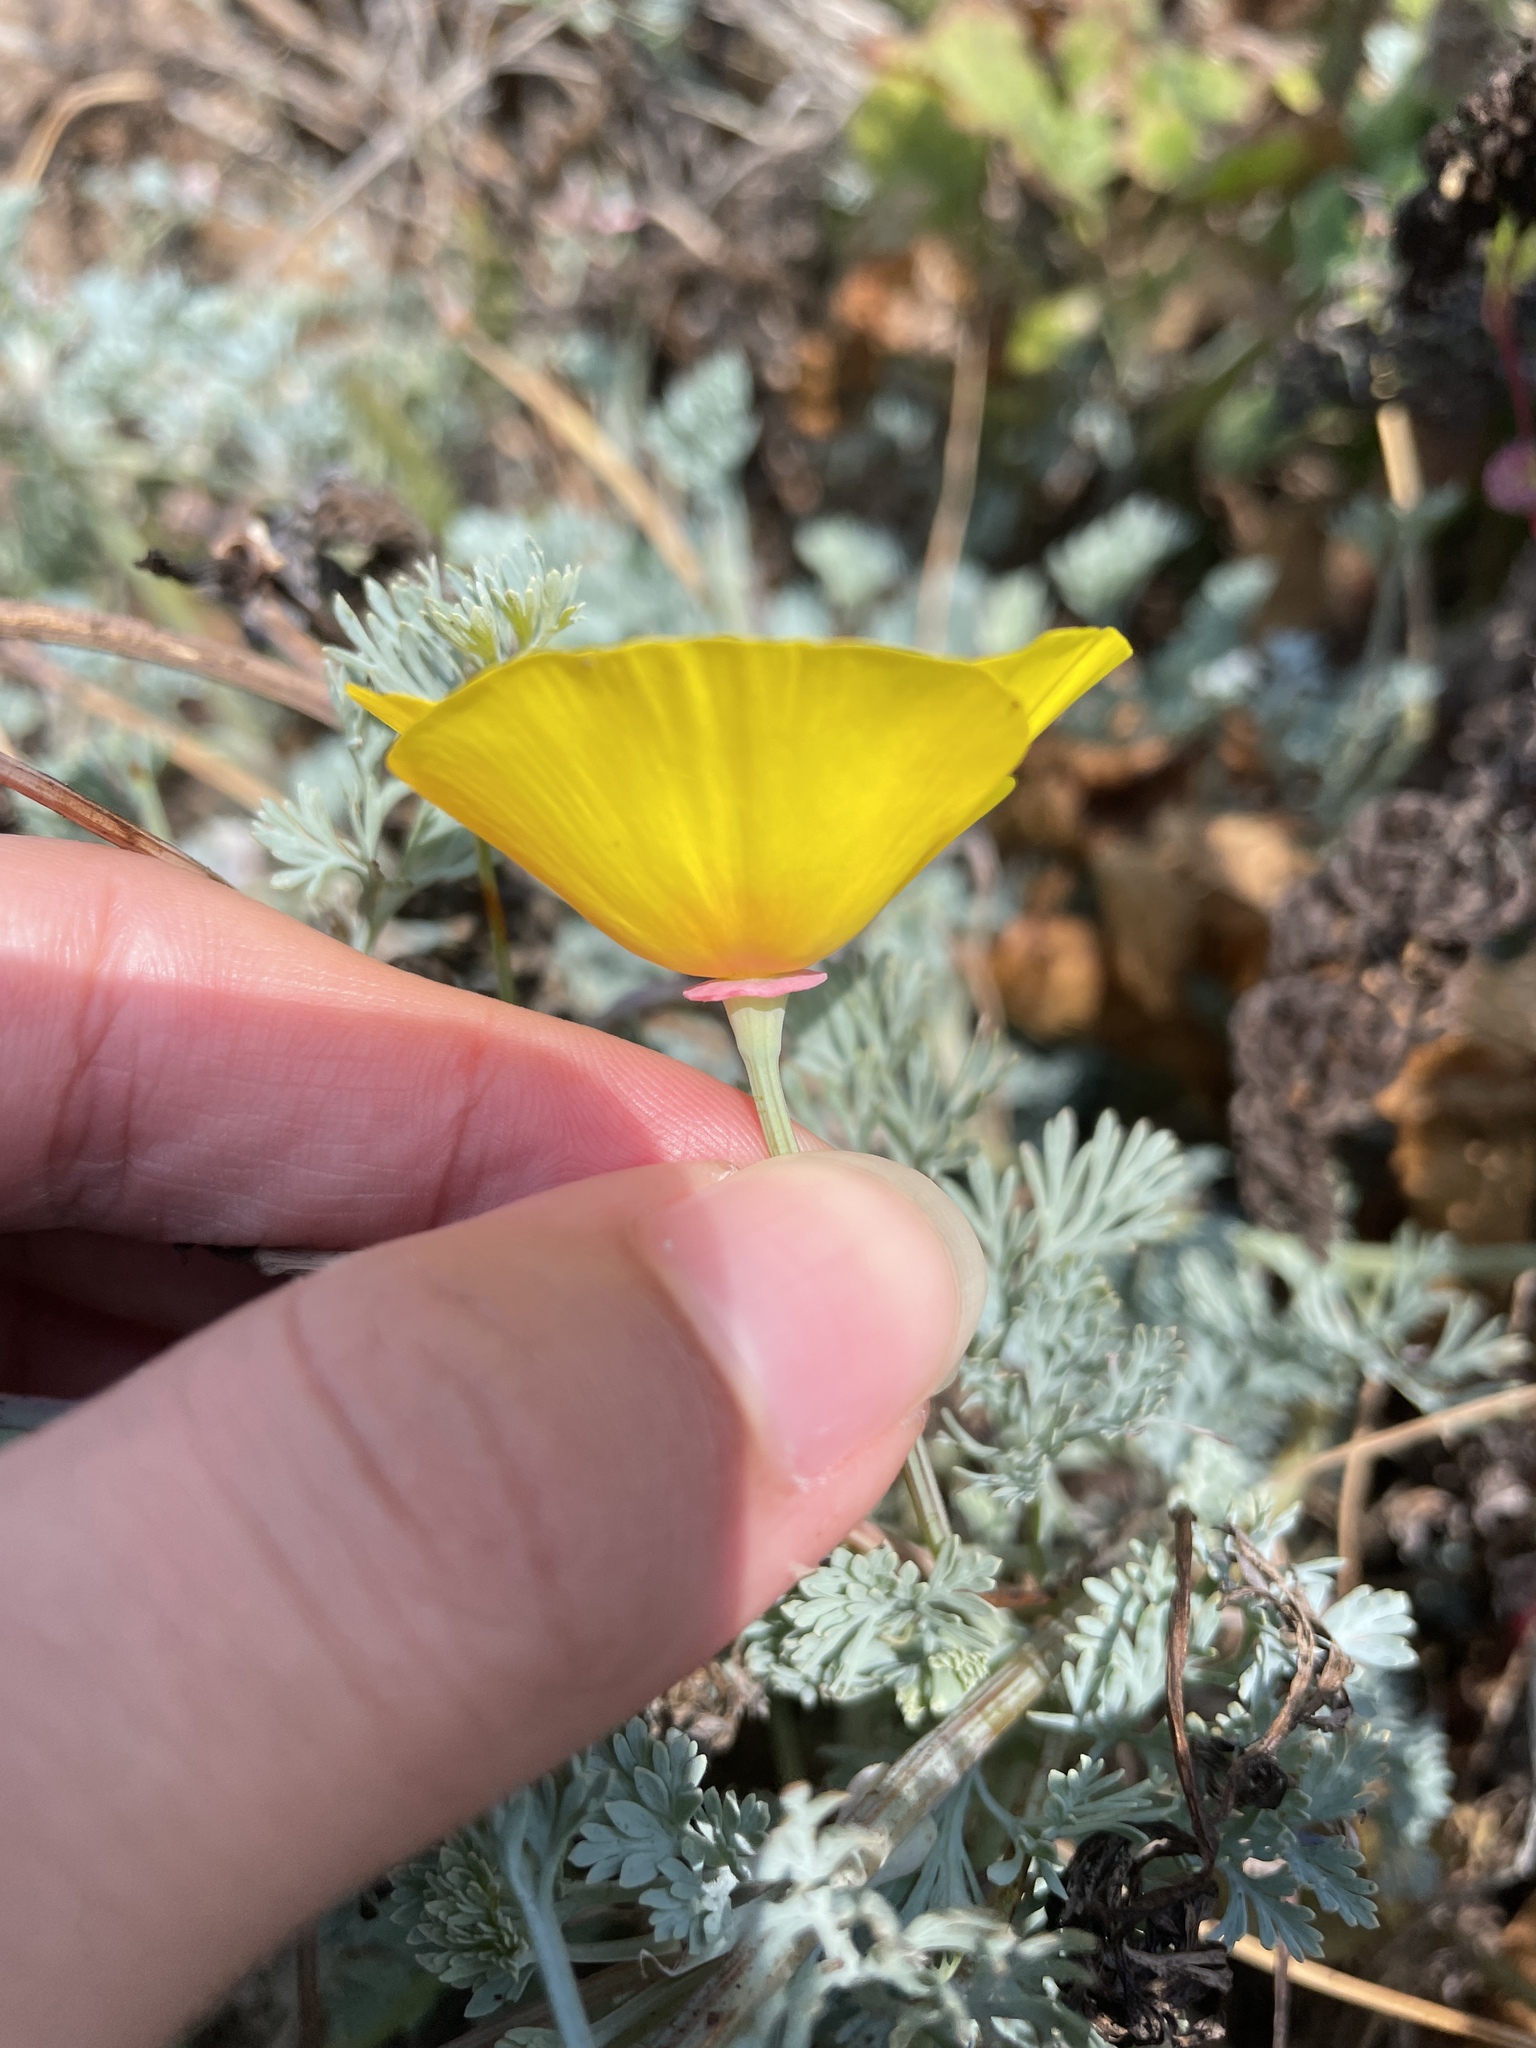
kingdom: Plantae
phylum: Tracheophyta
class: Magnoliopsida
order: Ranunculales
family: Papaveraceae
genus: Eschscholzia
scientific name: Eschscholzia californica
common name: California poppy
